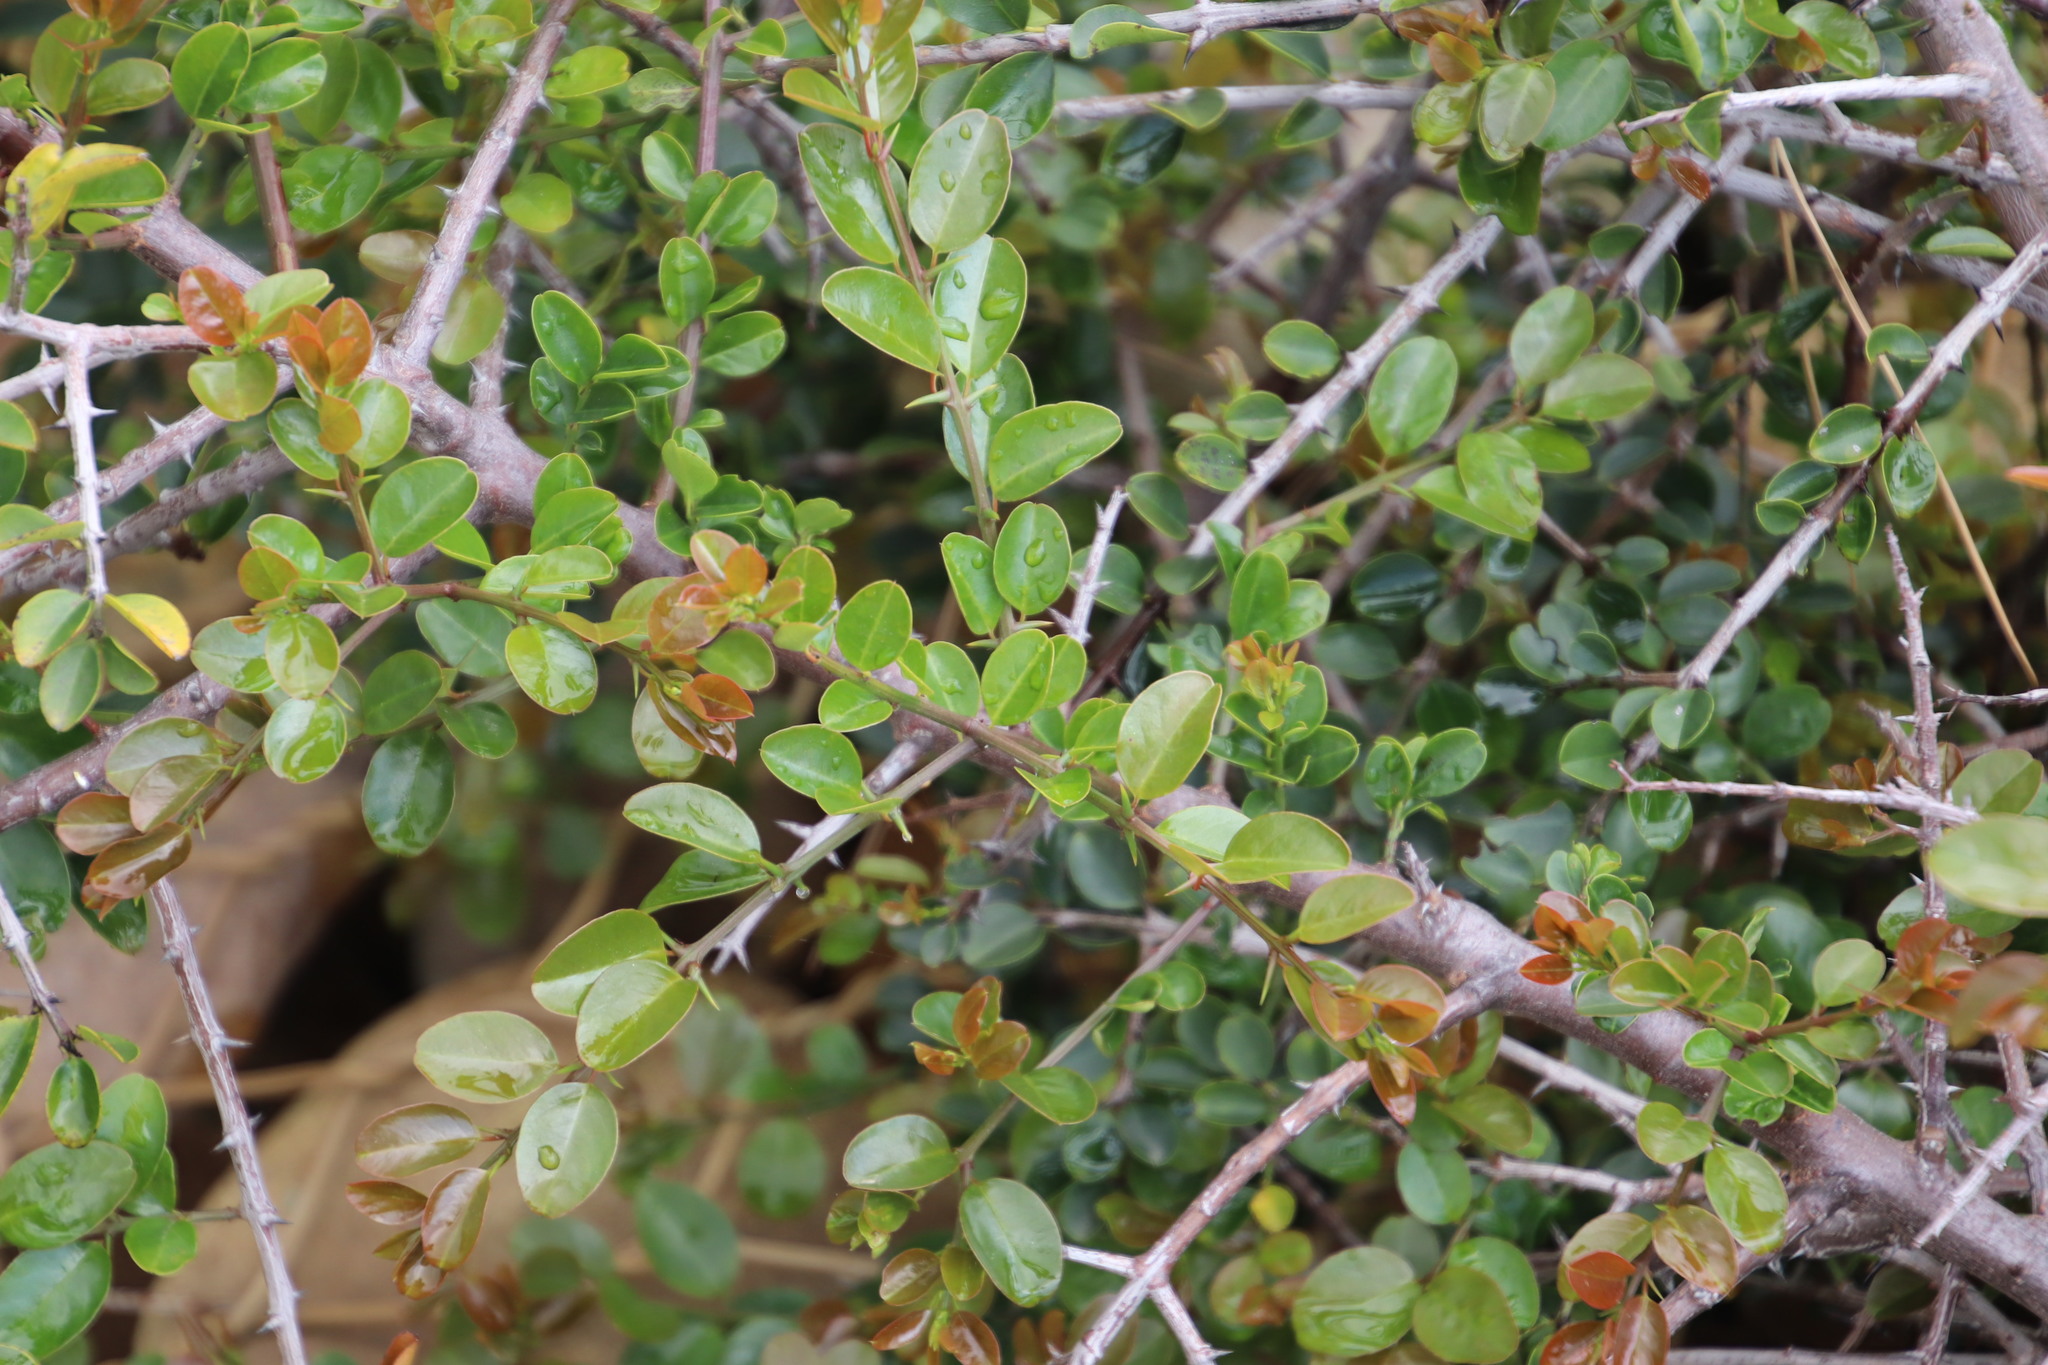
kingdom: Plantae
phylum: Tracheophyta
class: Magnoliopsida
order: Rosales
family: Rhamnaceae
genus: Scutia
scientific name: Scutia myrtina
